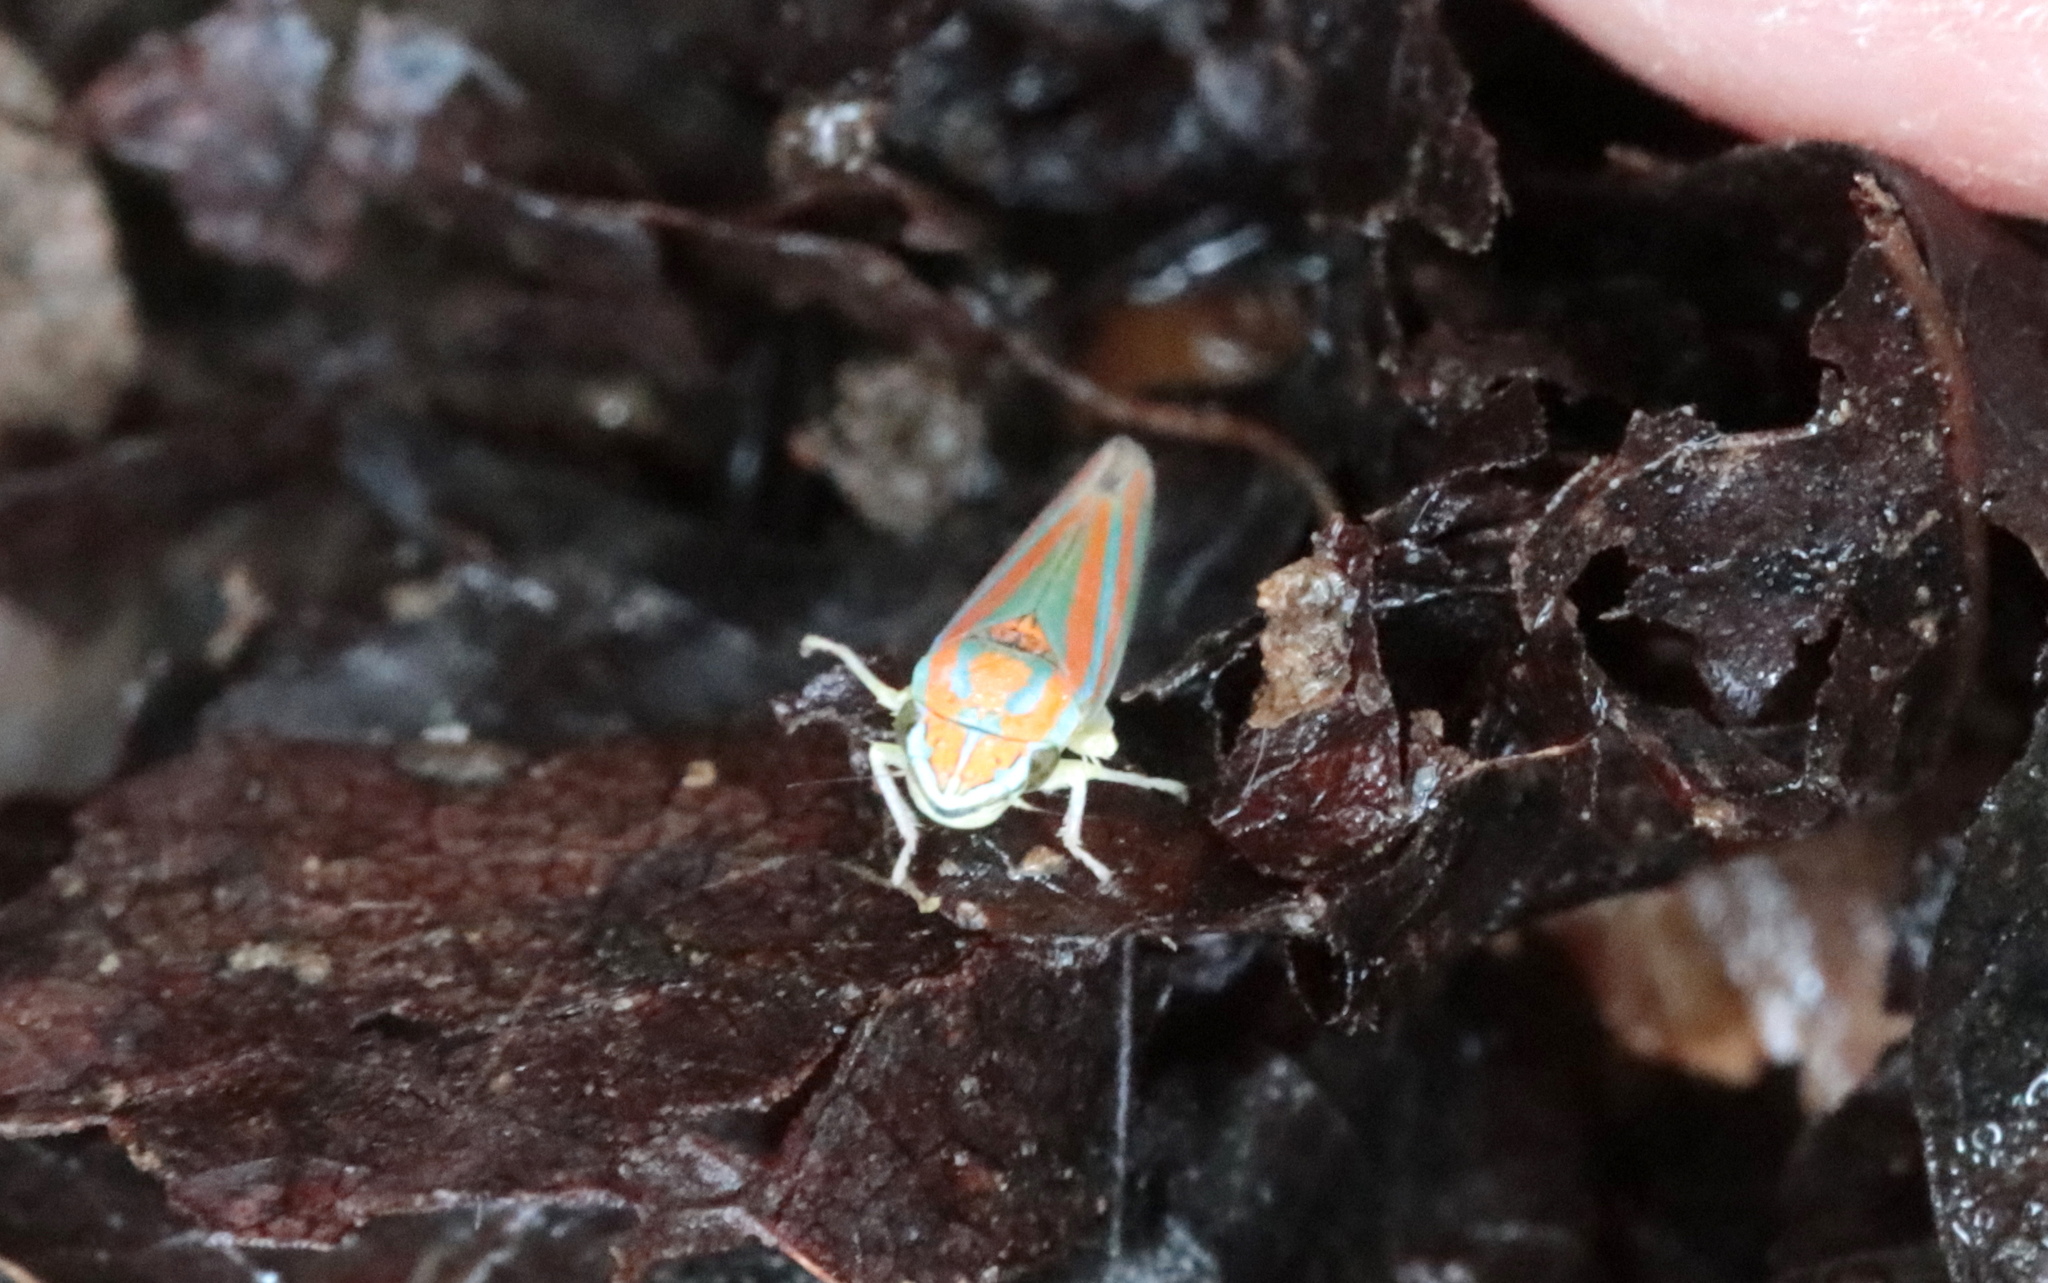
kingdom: Animalia
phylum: Arthropoda
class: Insecta
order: Hemiptera
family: Cicadellidae
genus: Graphocephala
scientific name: Graphocephala versuta
